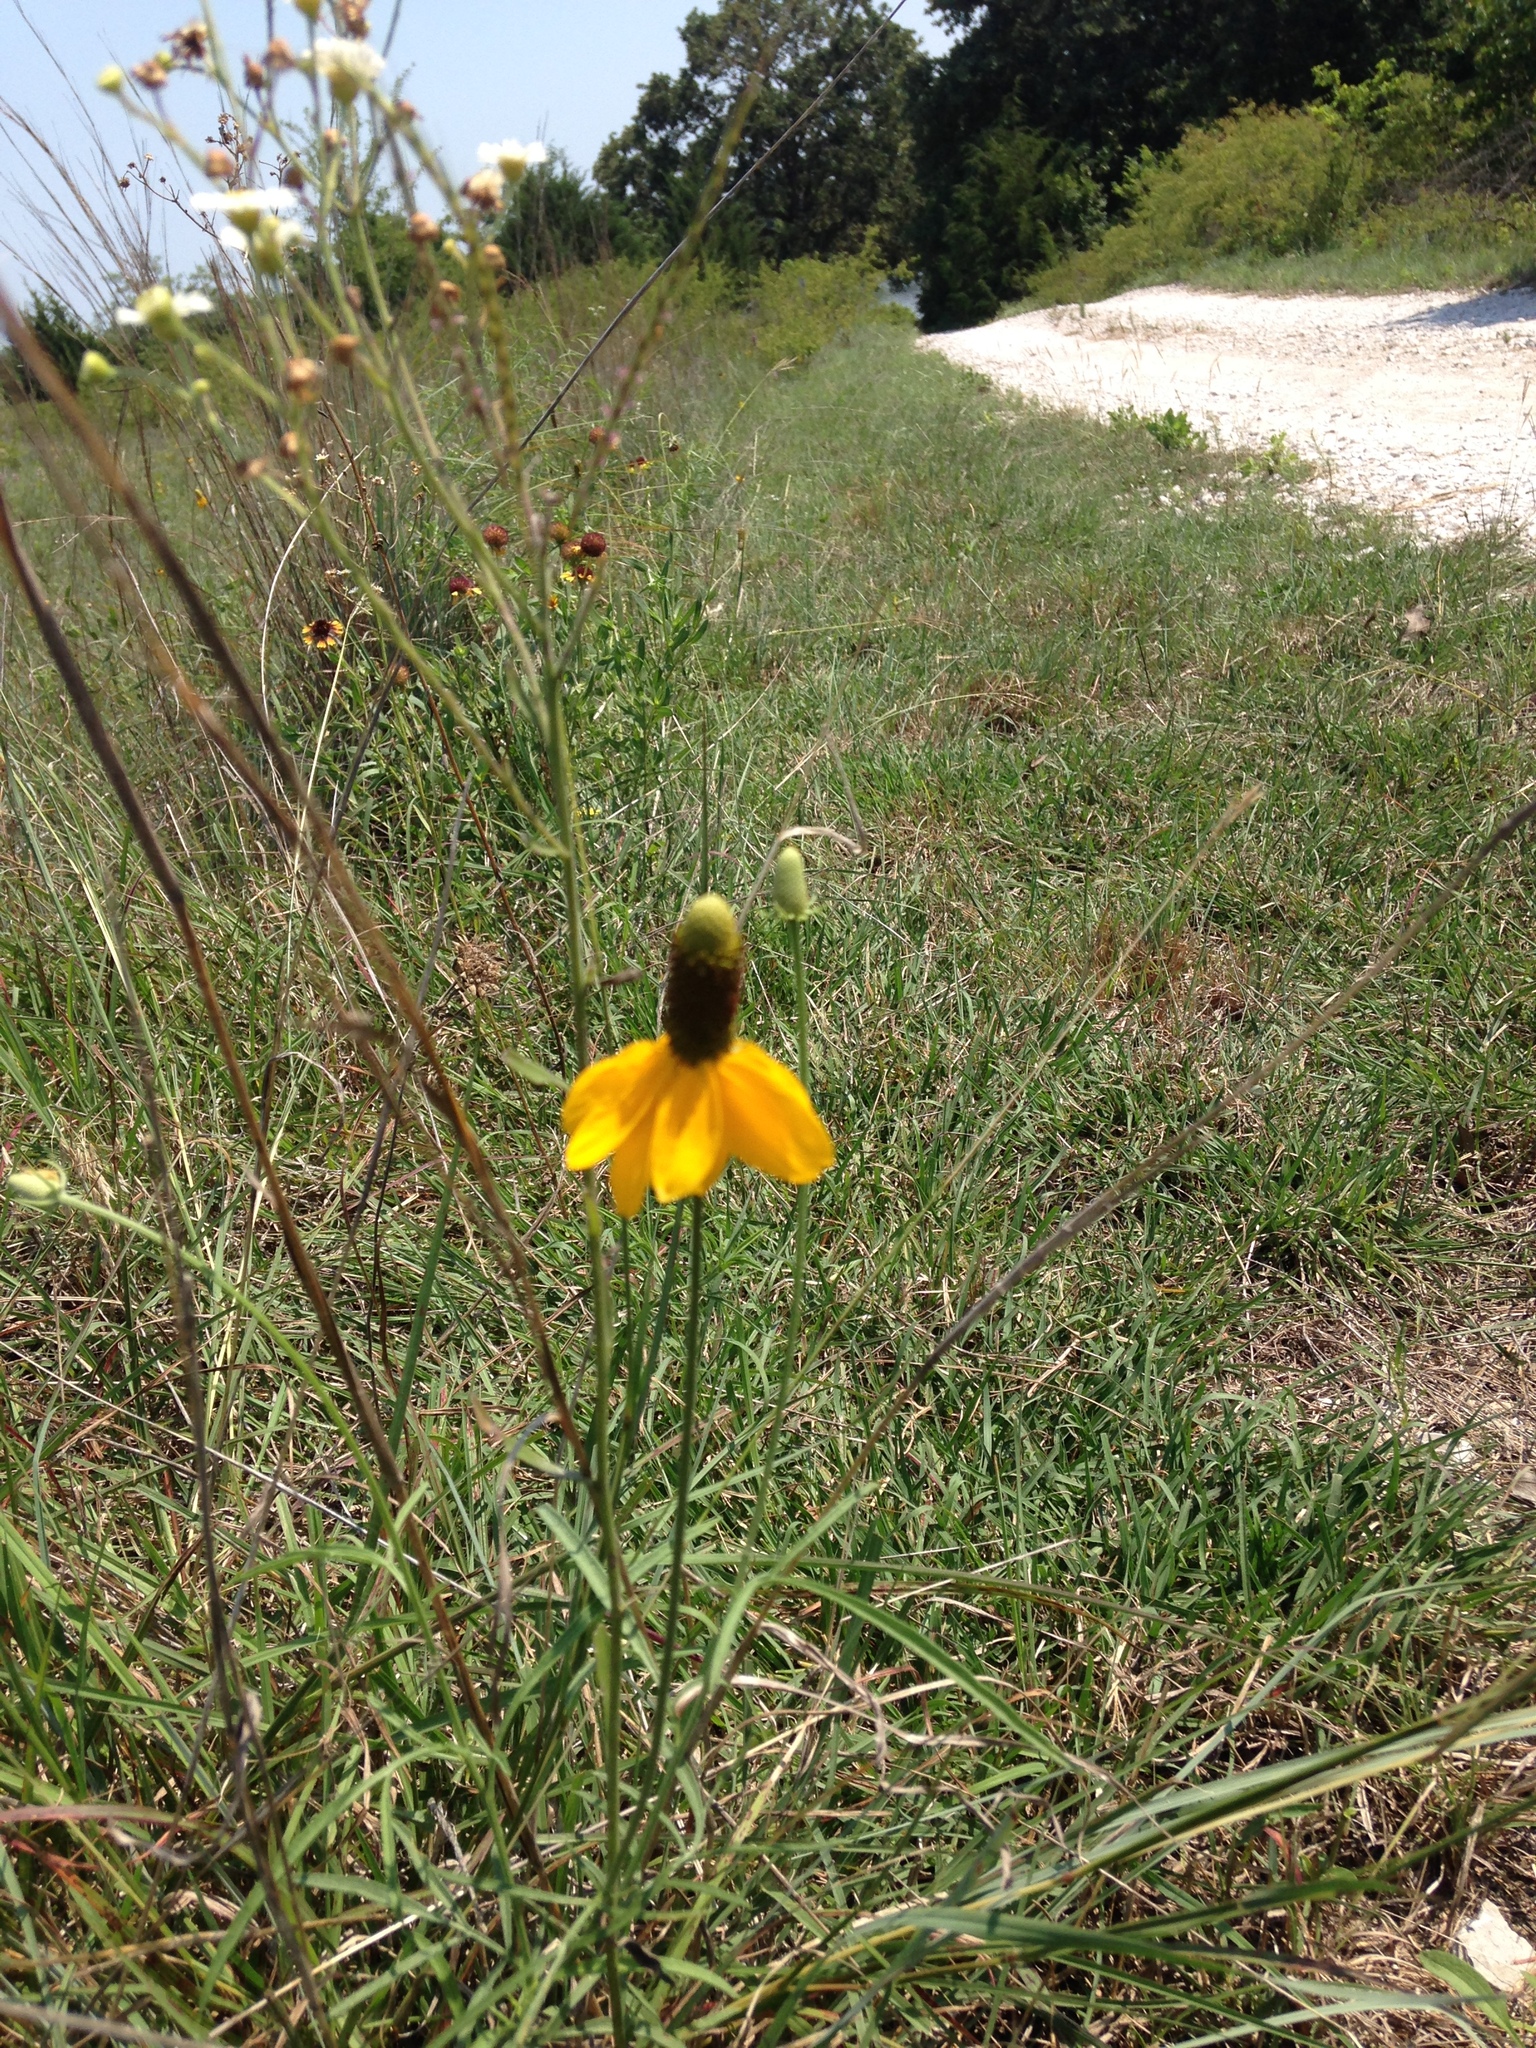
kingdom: Plantae
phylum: Tracheophyta
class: Magnoliopsida
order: Asterales
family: Asteraceae
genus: Ratibida
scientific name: Ratibida columnifera
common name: Prairie coneflower
